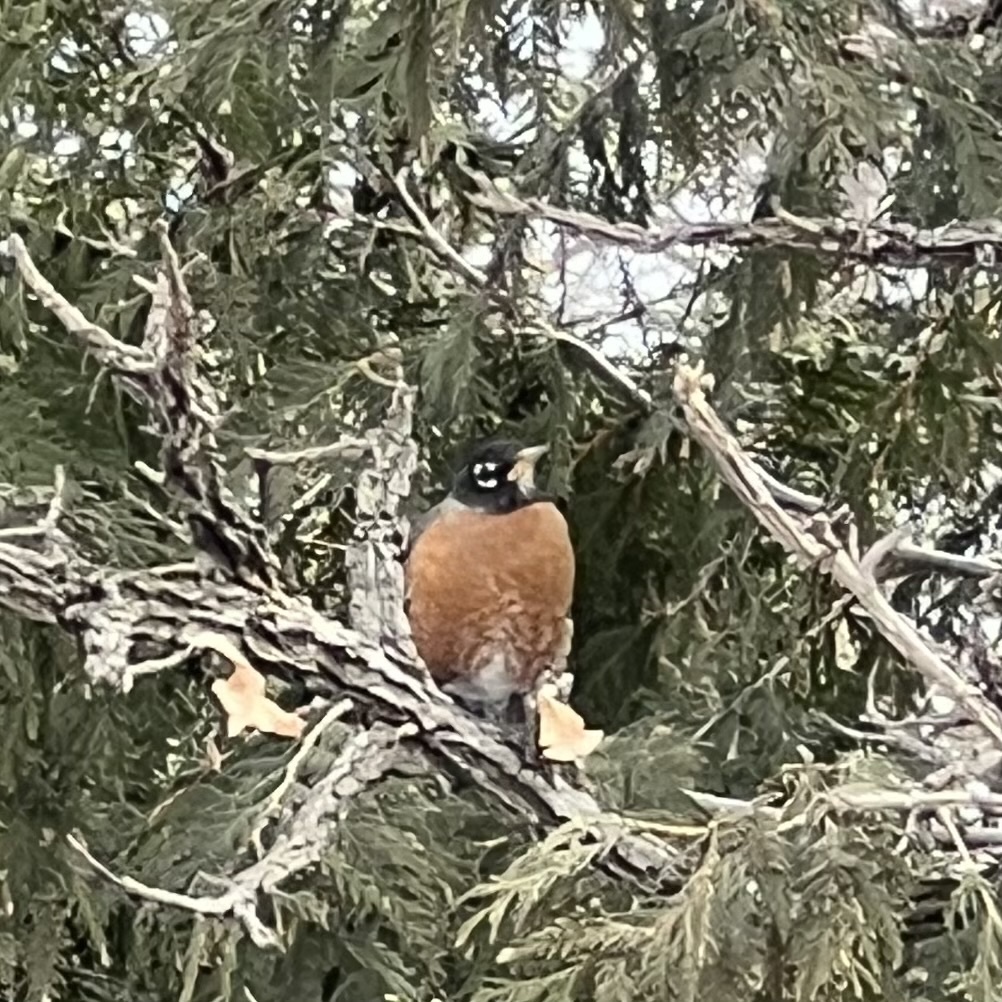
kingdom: Animalia
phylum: Chordata
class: Aves
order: Passeriformes
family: Turdidae
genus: Turdus
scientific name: Turdus migratorius
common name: American robin
